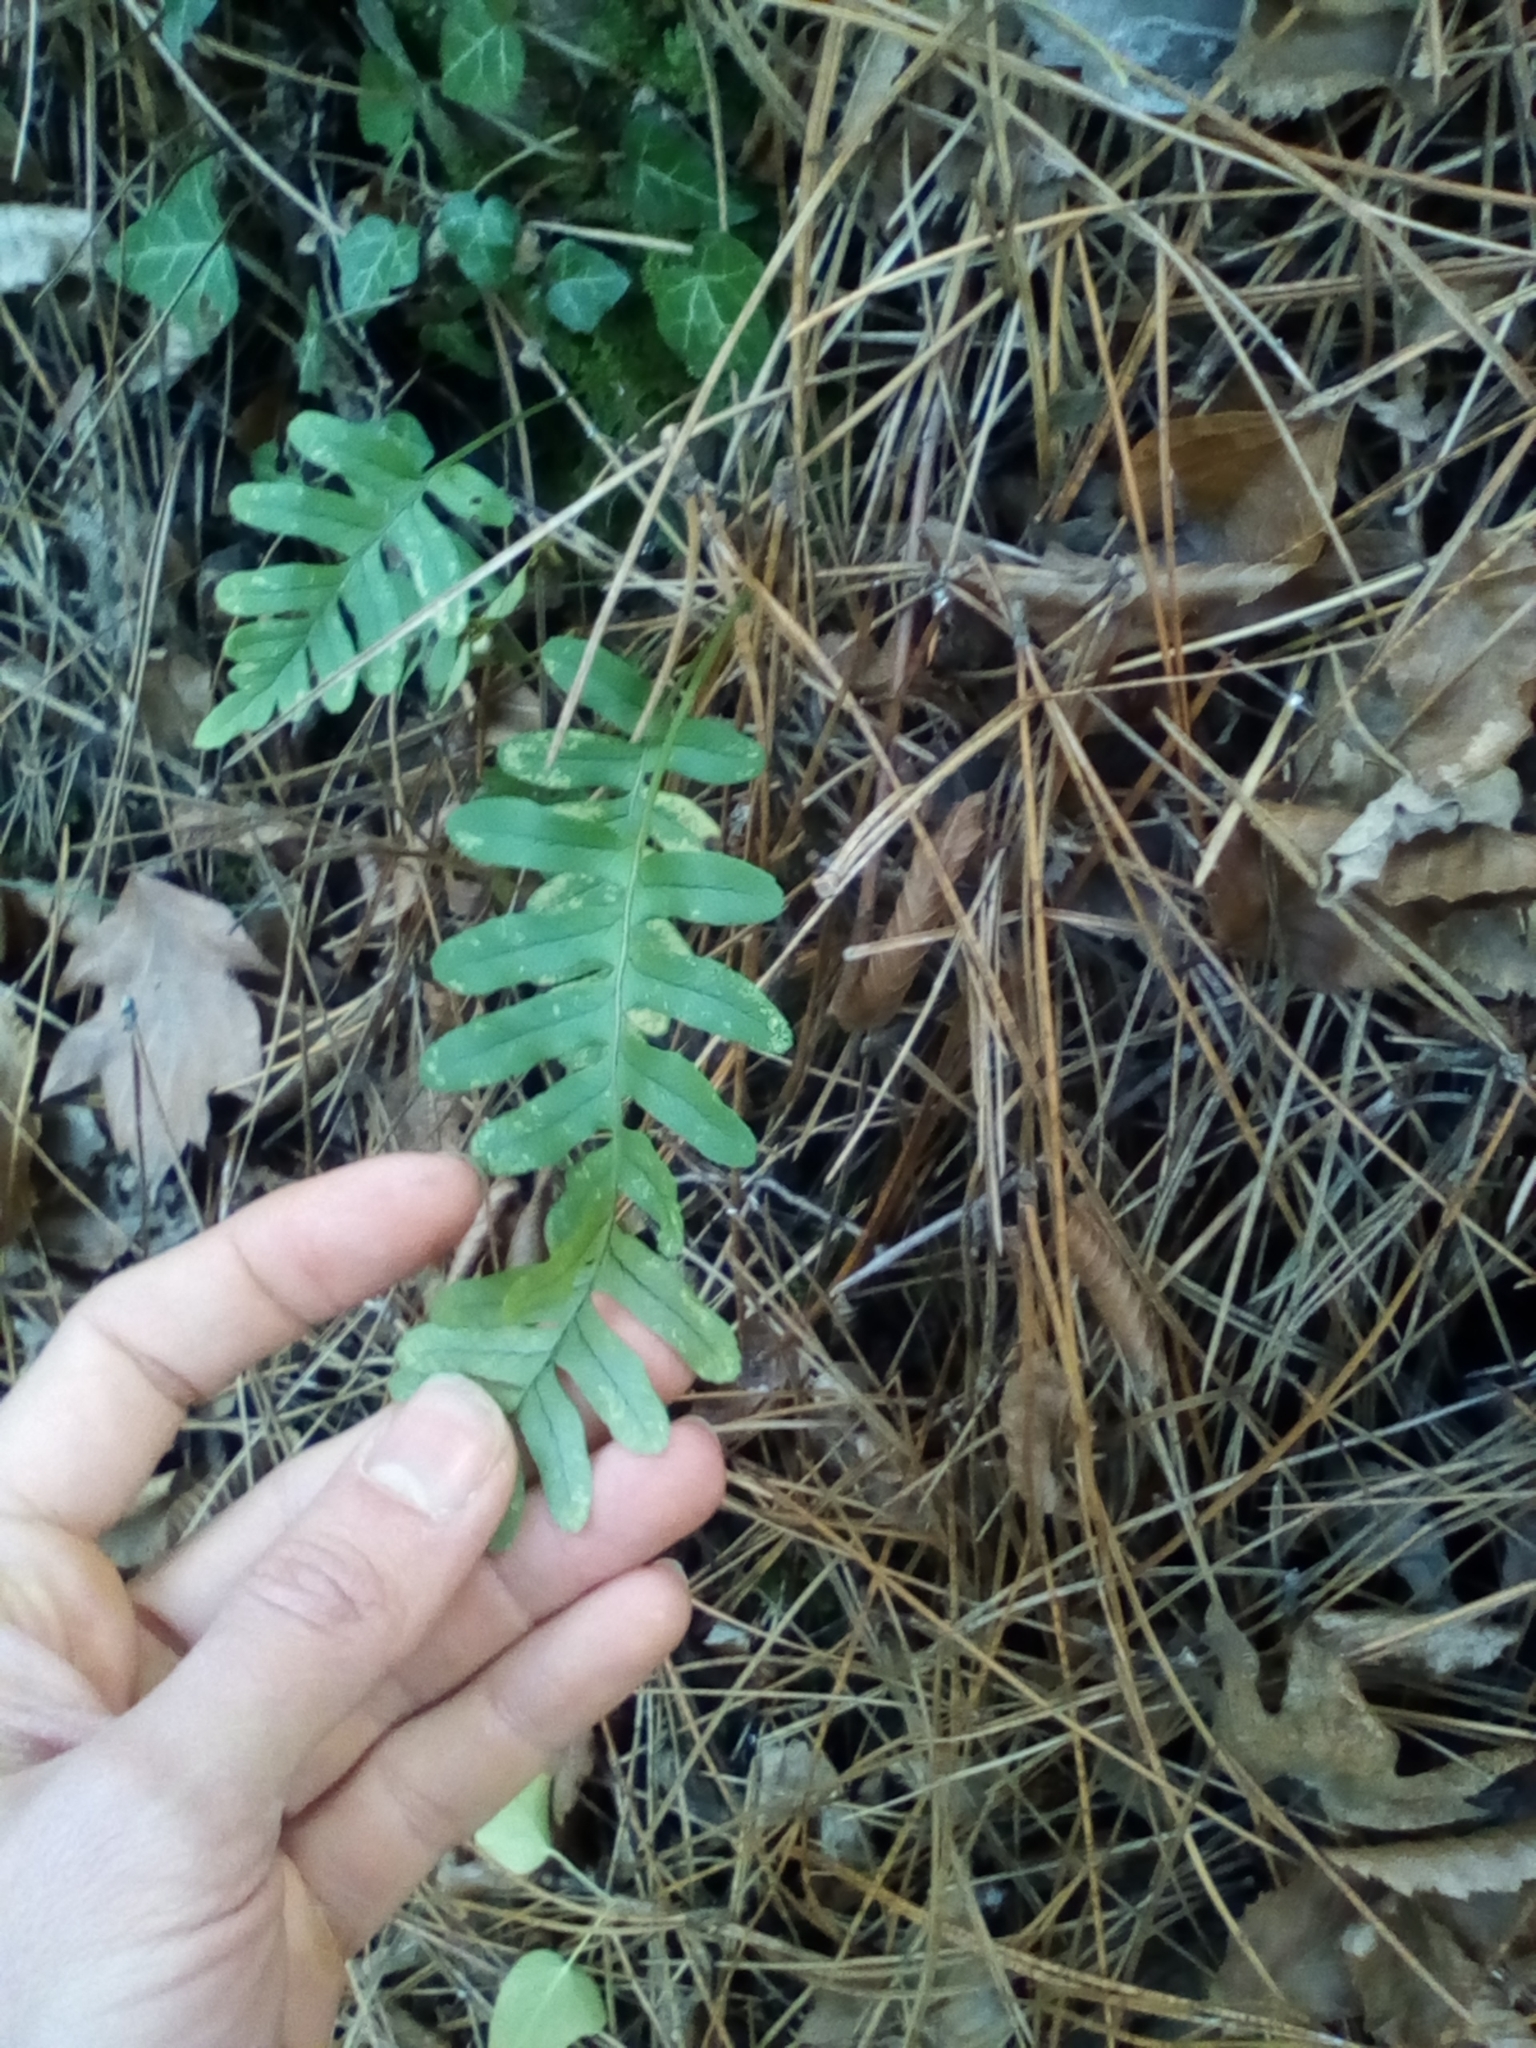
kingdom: Plantae
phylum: Tracheophyta
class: Polypodiopsida
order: Polypodiales
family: Polypodiaceae
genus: Polypodium
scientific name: Polypodium vulgare
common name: Common polypody
